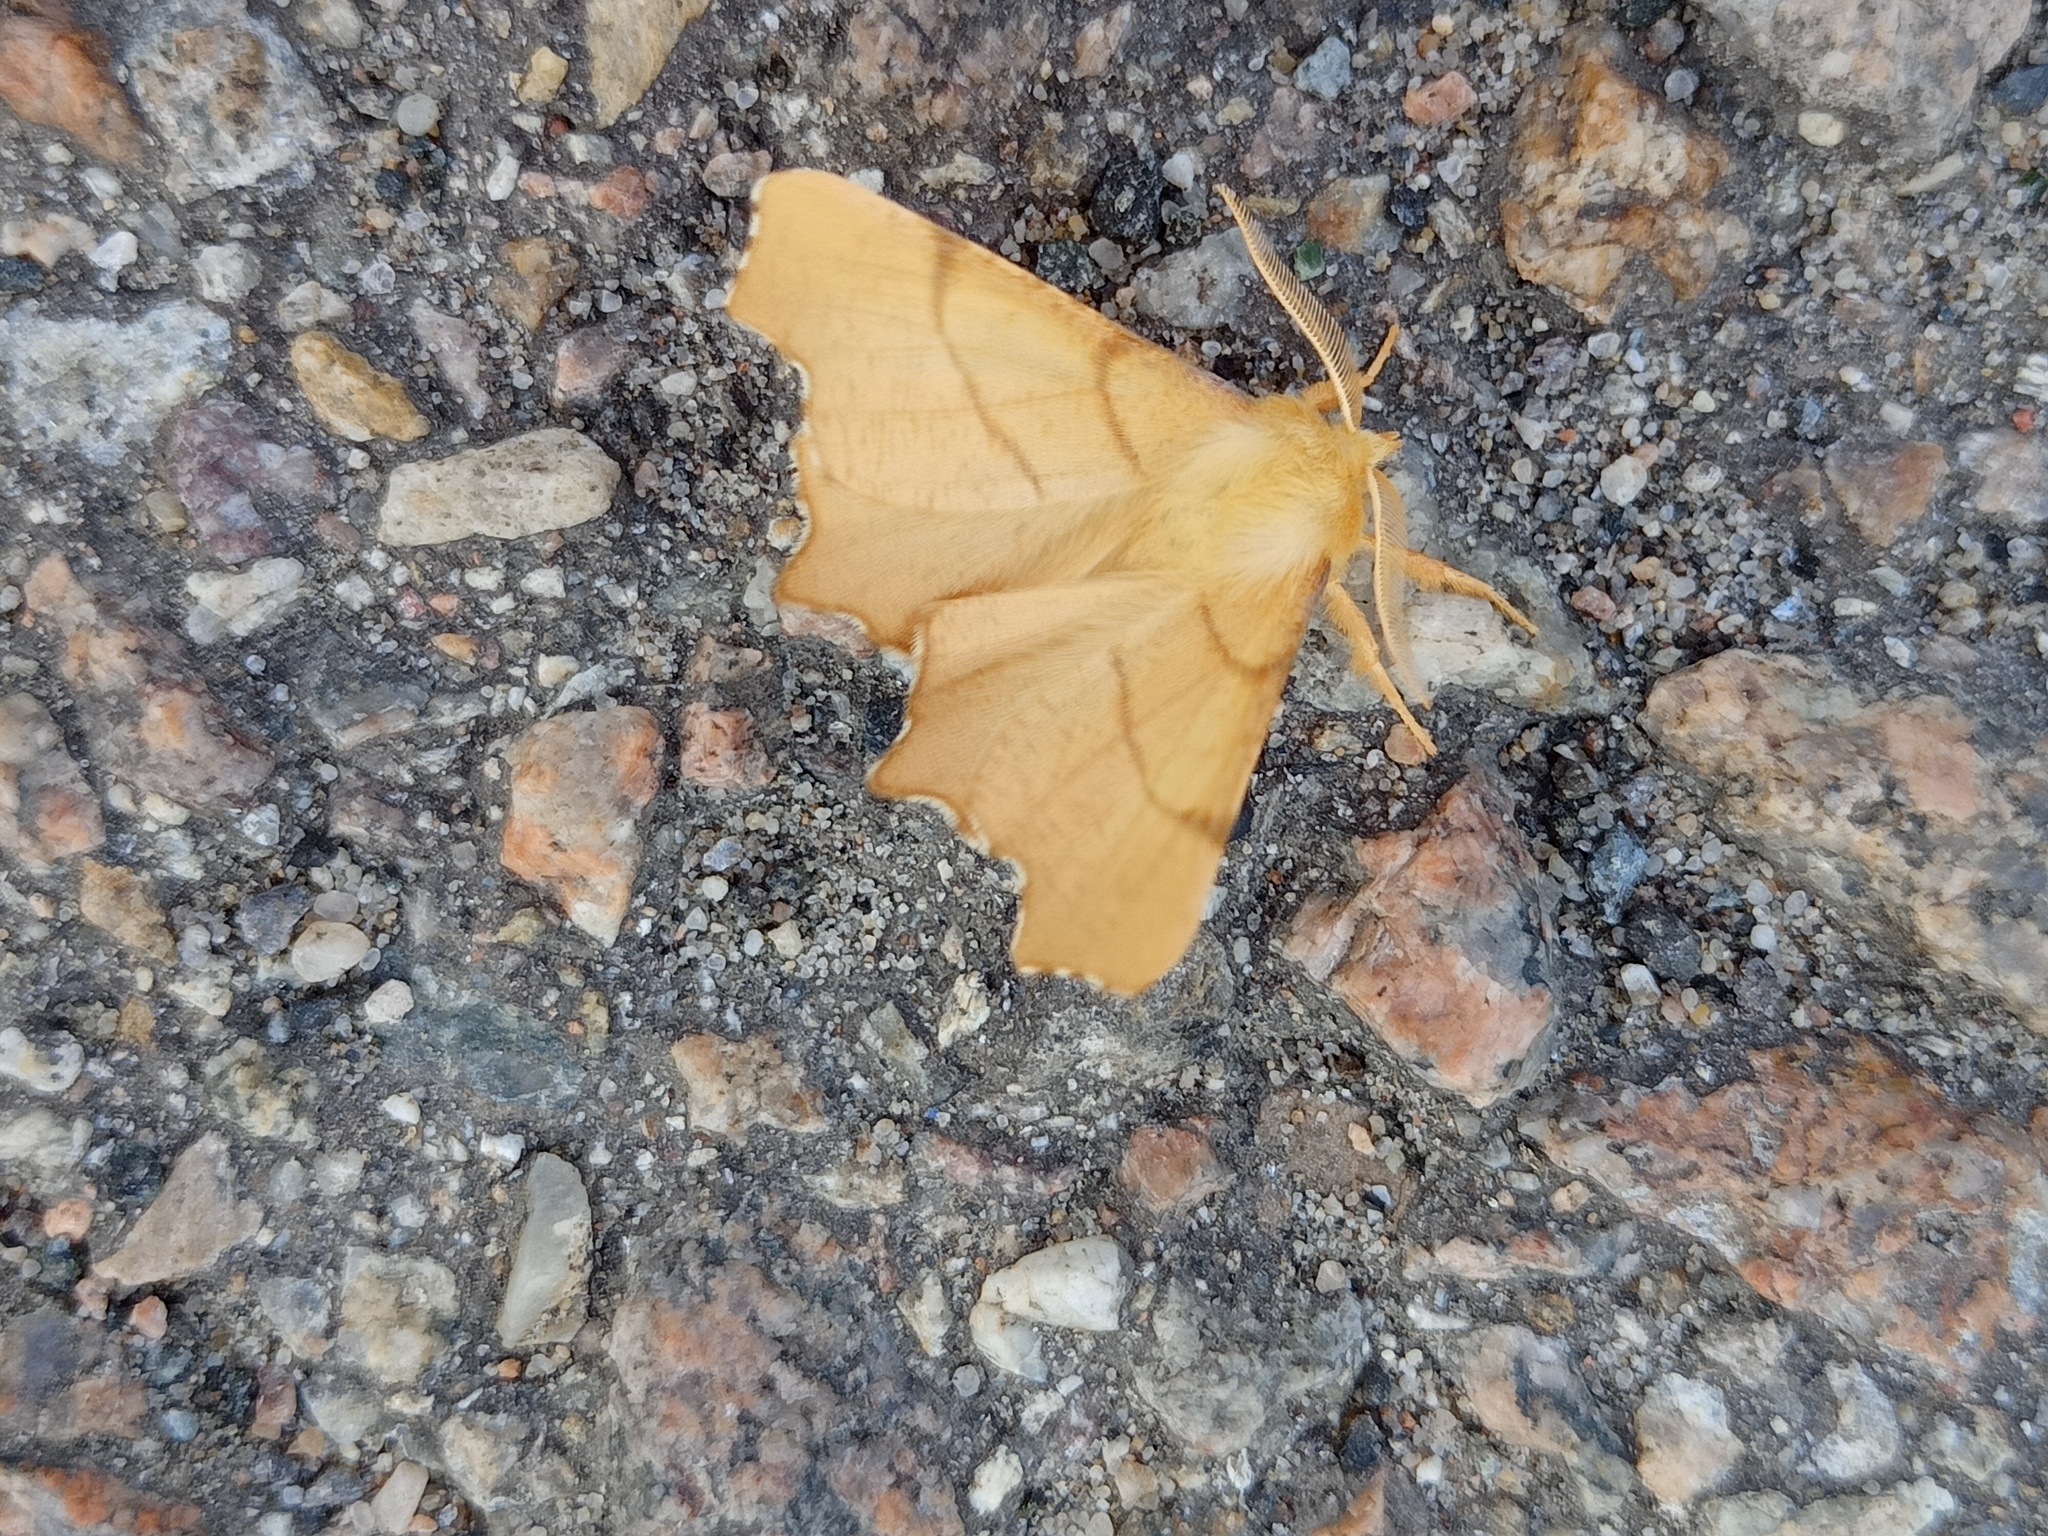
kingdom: Animalia
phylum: Arthropoda
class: Insecta
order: Lepidoptera
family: Geometridae
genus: Ennomos
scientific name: Ennomos erosaria
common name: September thorn
